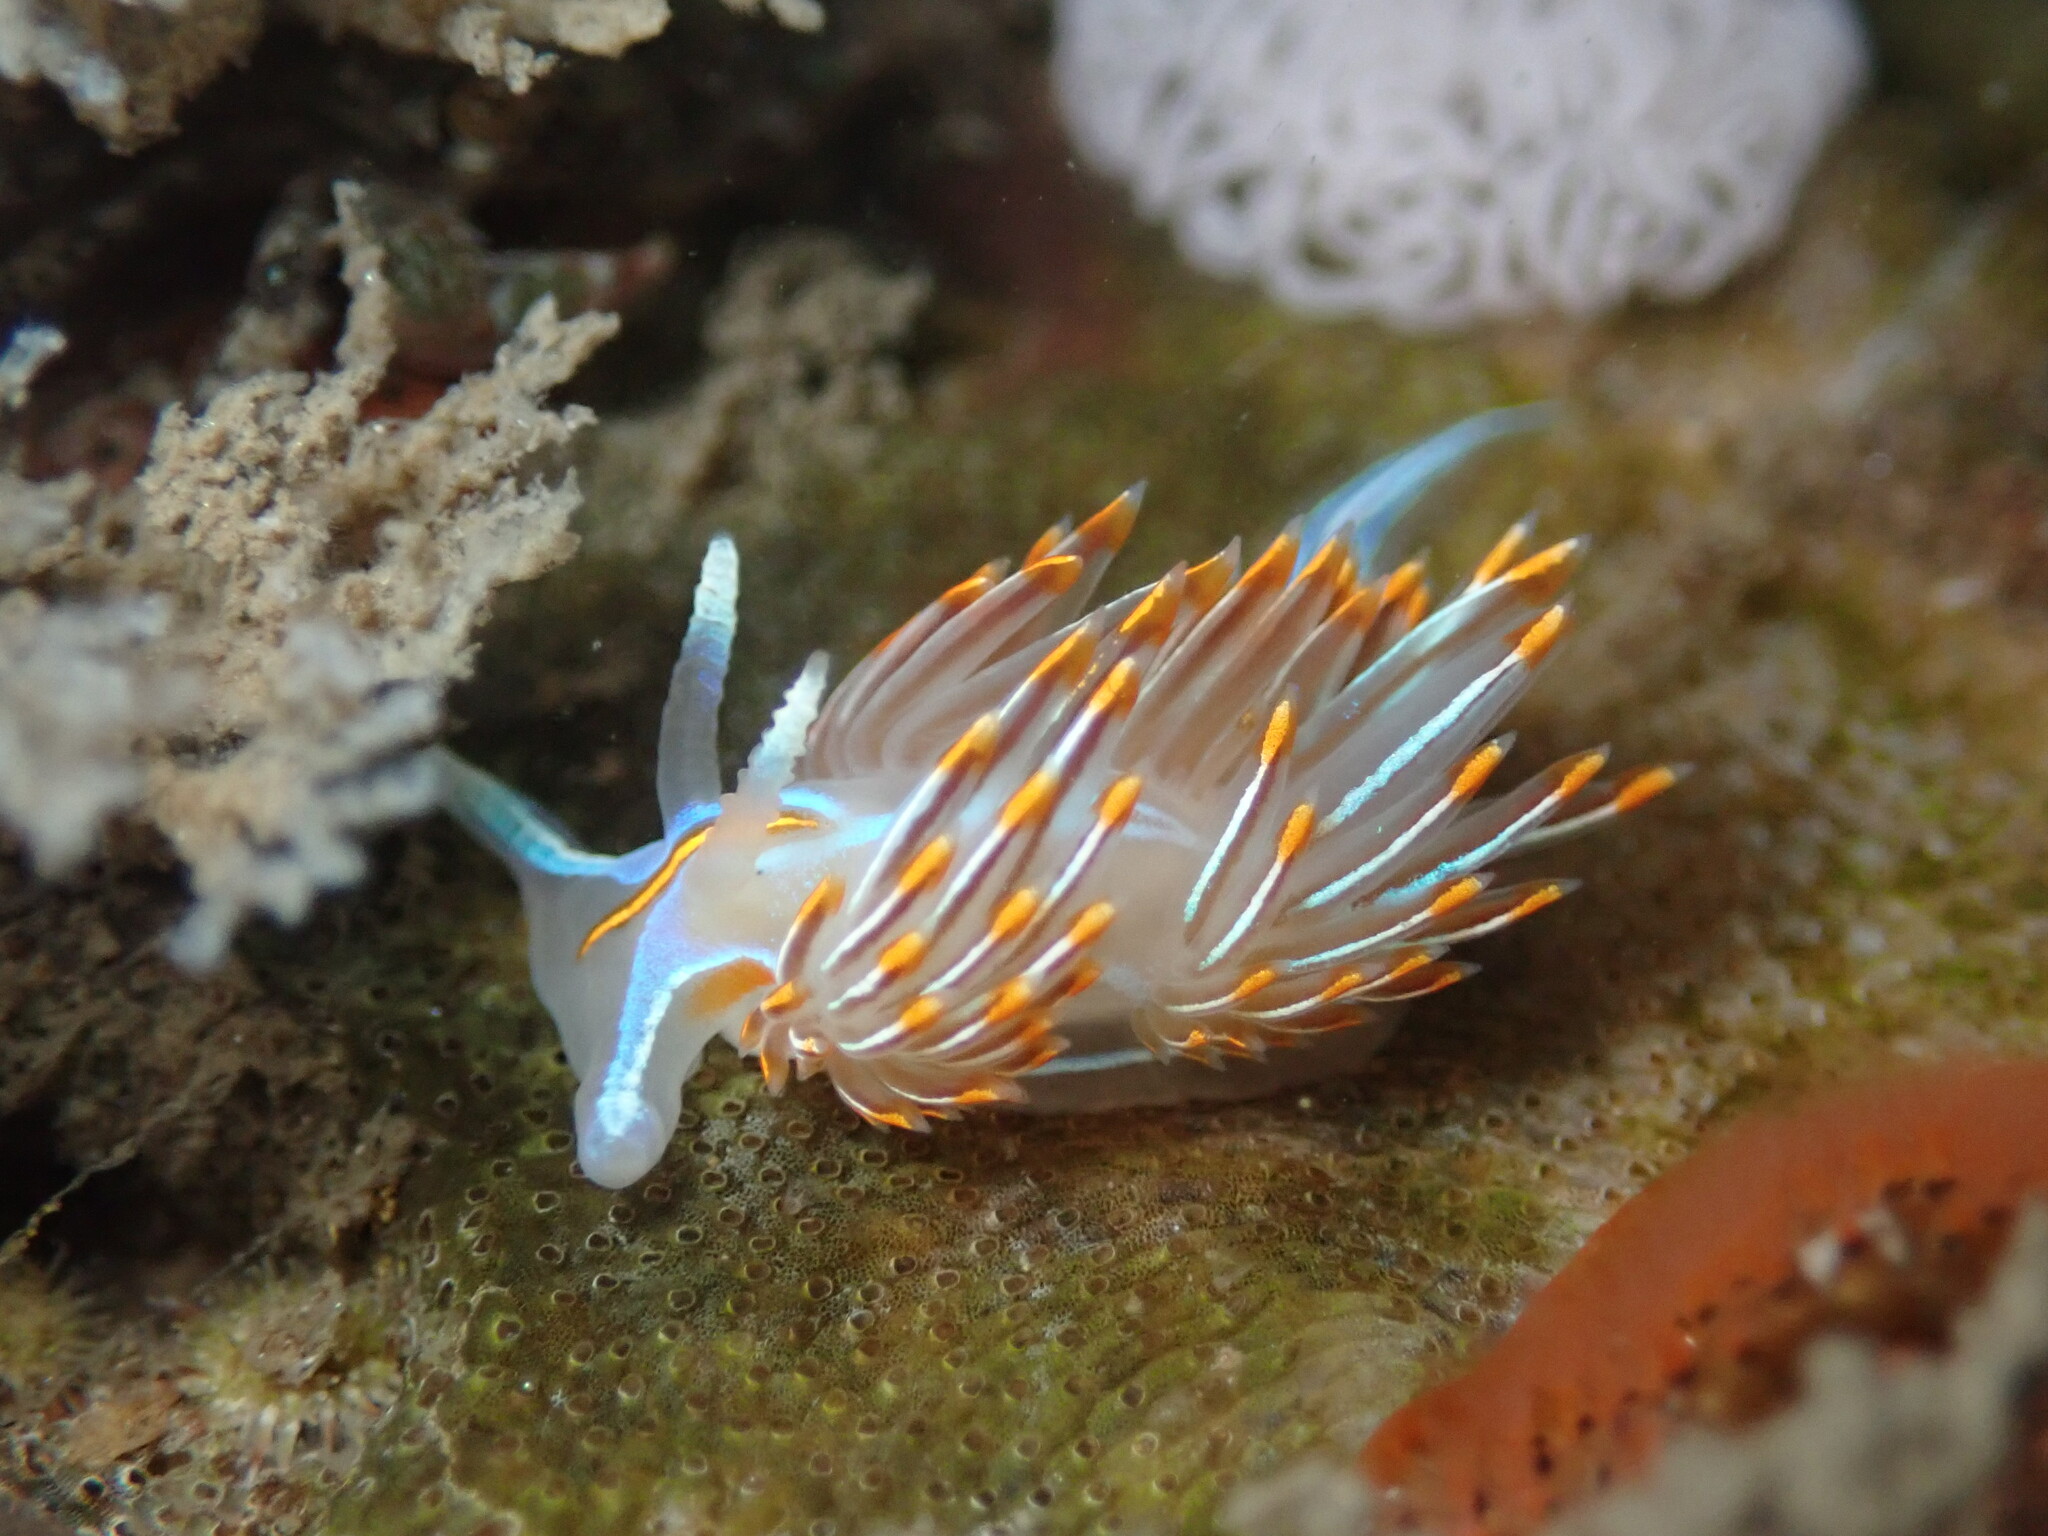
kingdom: Animalia
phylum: Mollusca
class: Gastropoda
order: Nudibranchia
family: Myrrhinidae
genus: Hermissenda
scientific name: Hermissenda crassicornis
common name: Hermissenda
